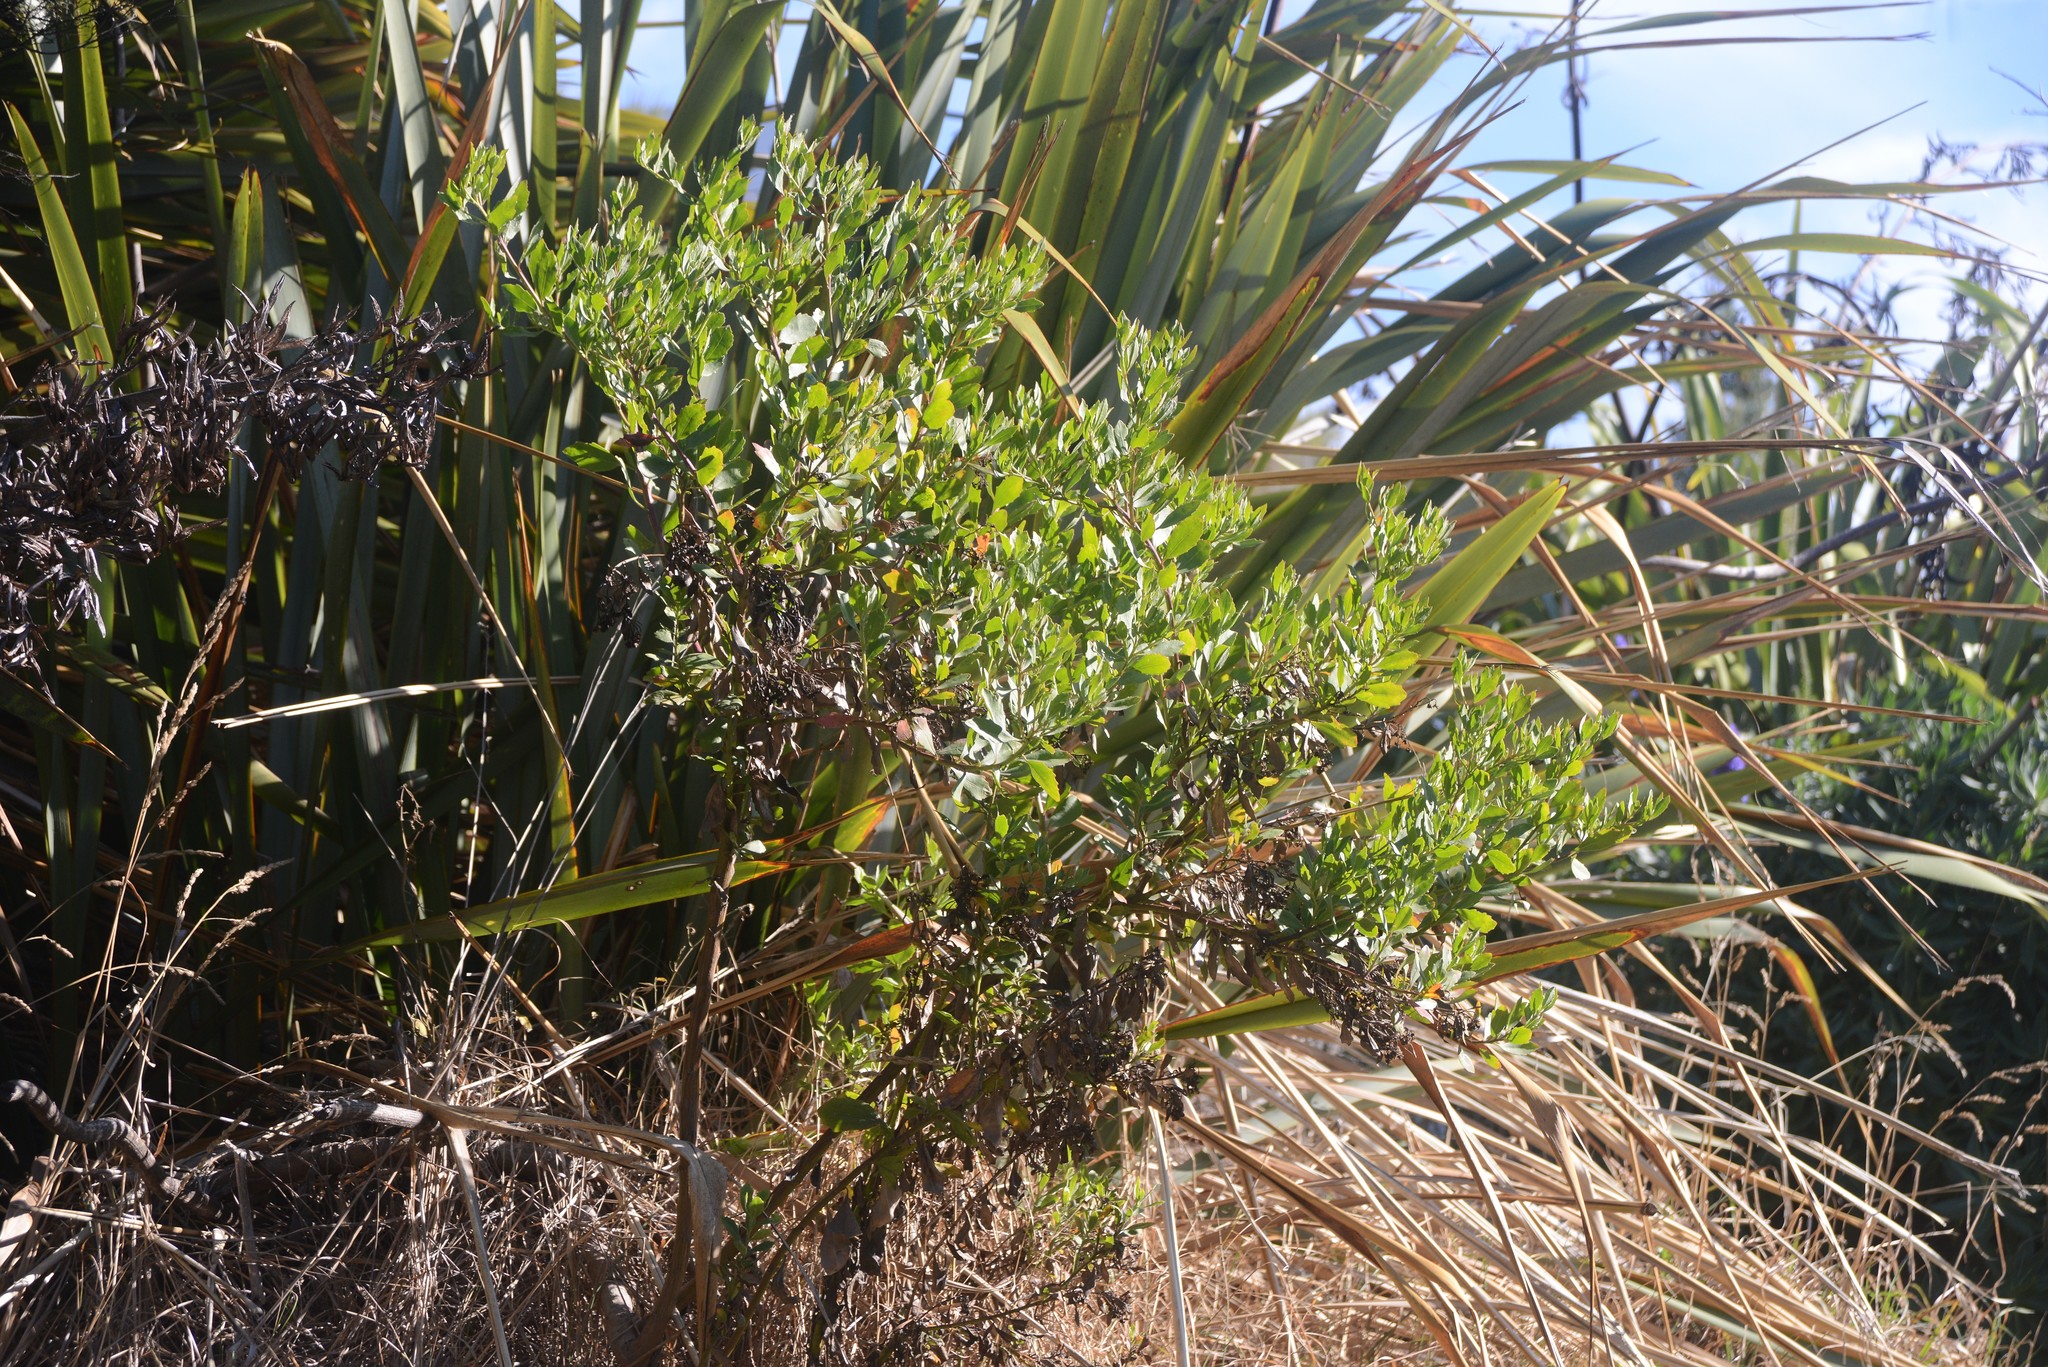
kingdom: Plantae
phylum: Tracheophyta
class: Magnoliopsida
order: Asterales
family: Asteraceae
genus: Osteospermum
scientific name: Osteospermum moniliferum
